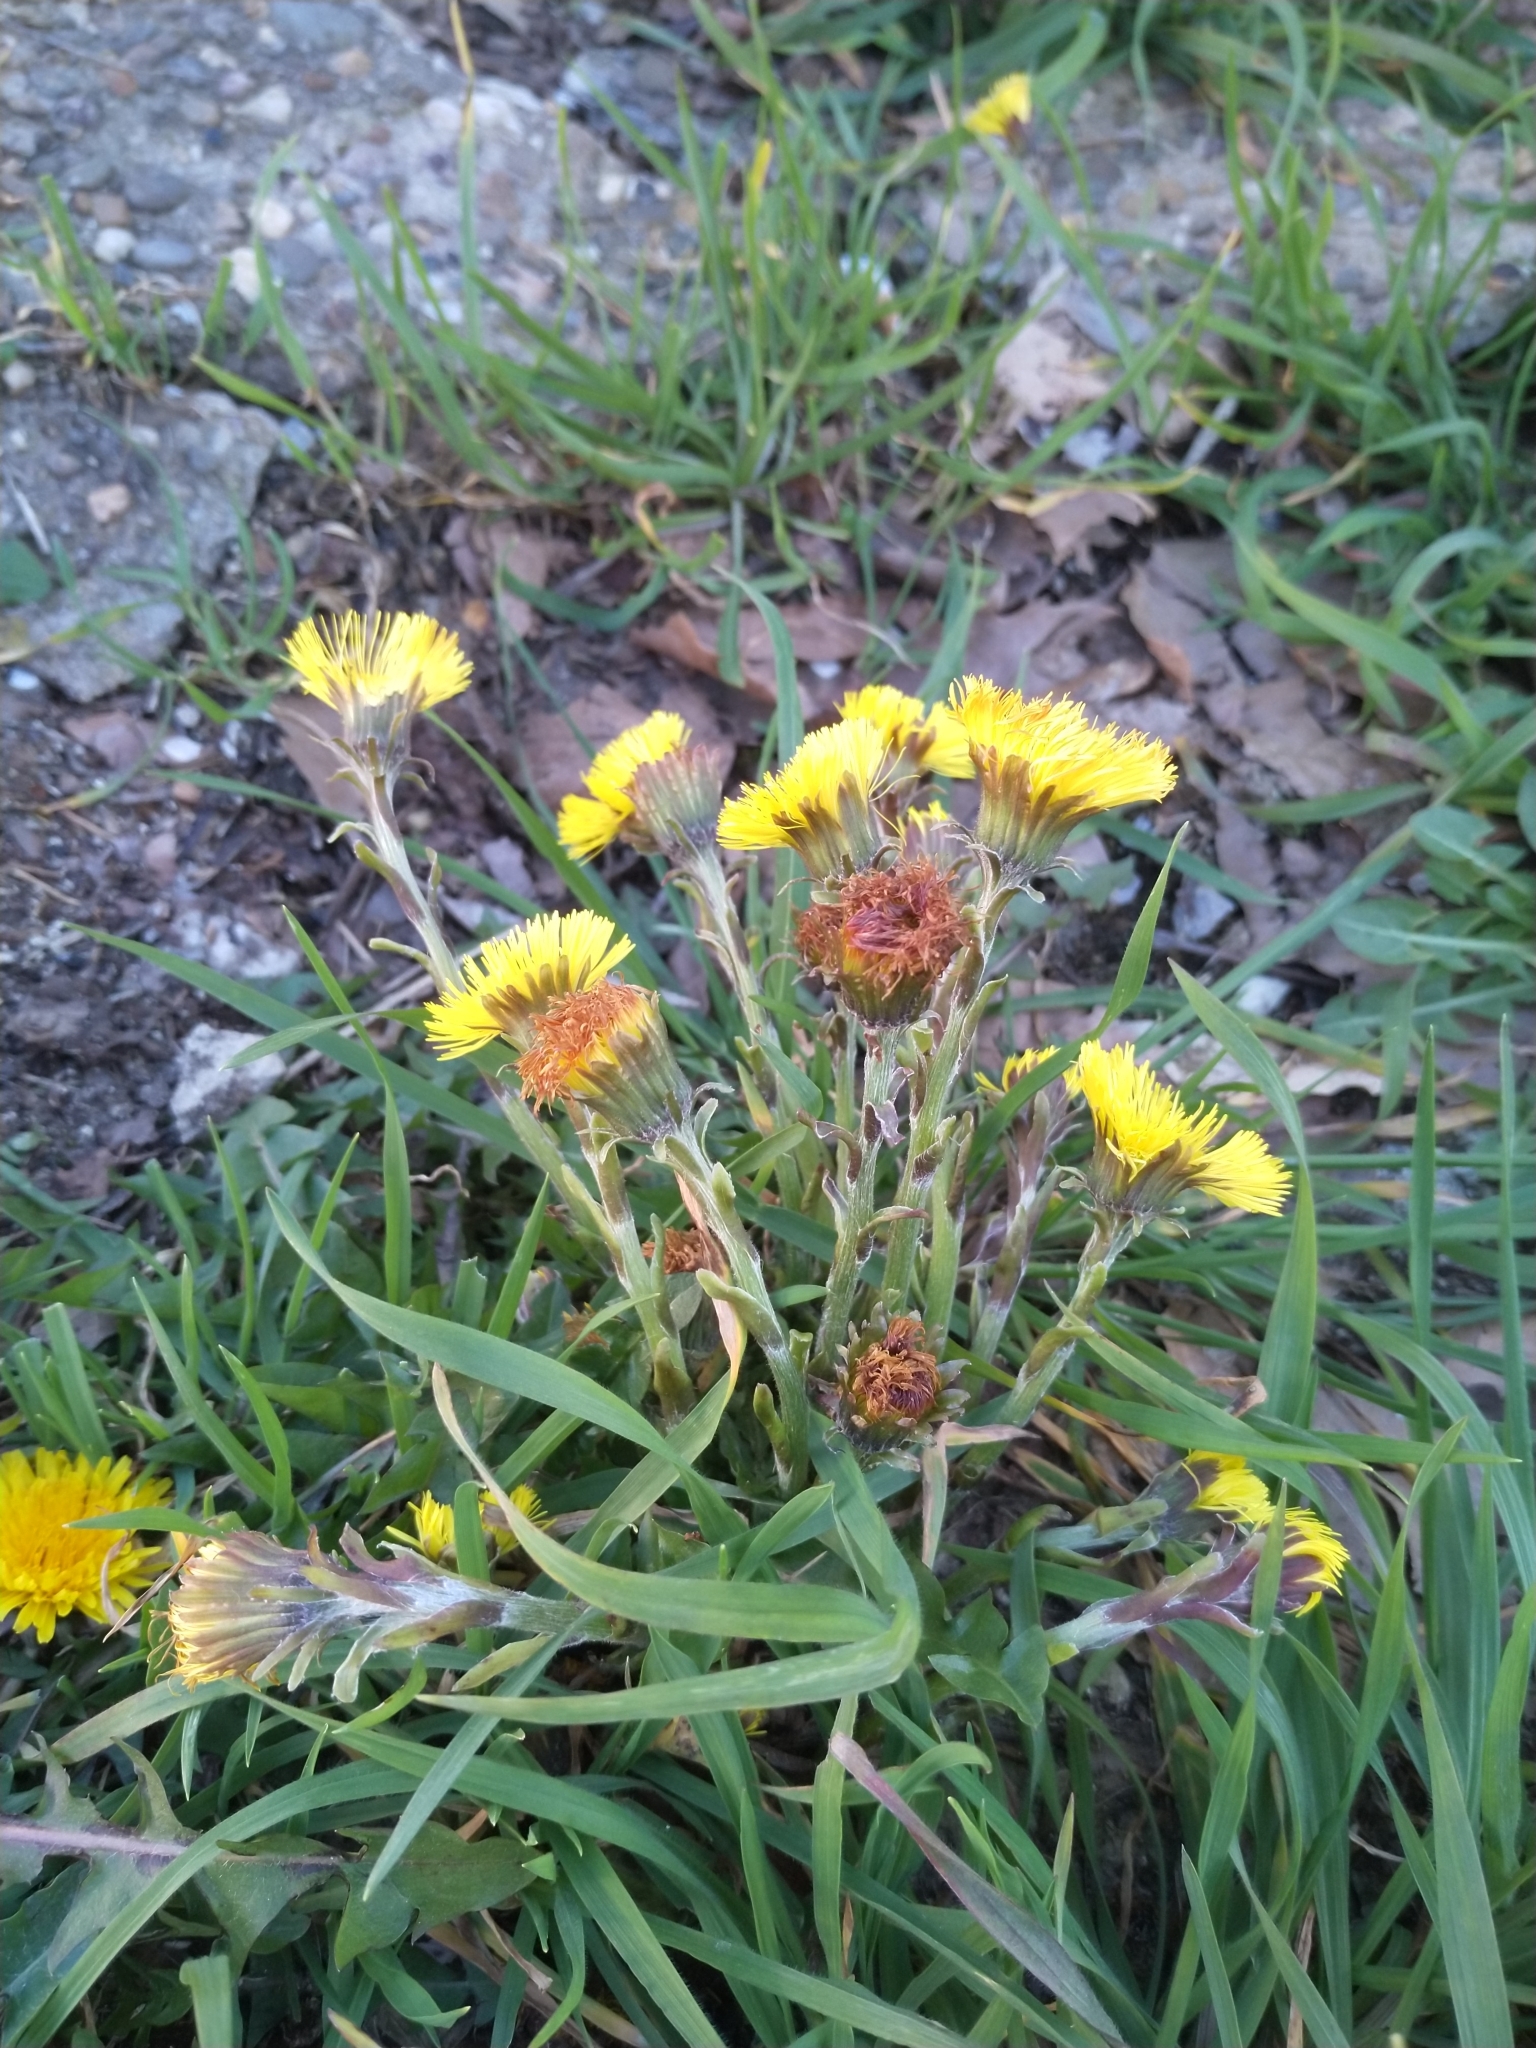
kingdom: Plantae
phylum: Tracheophyta
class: Magnoliopsida
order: Asterales
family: Asteraceae
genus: Tussilago
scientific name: Tussilago farfara
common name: Coltsfoot
